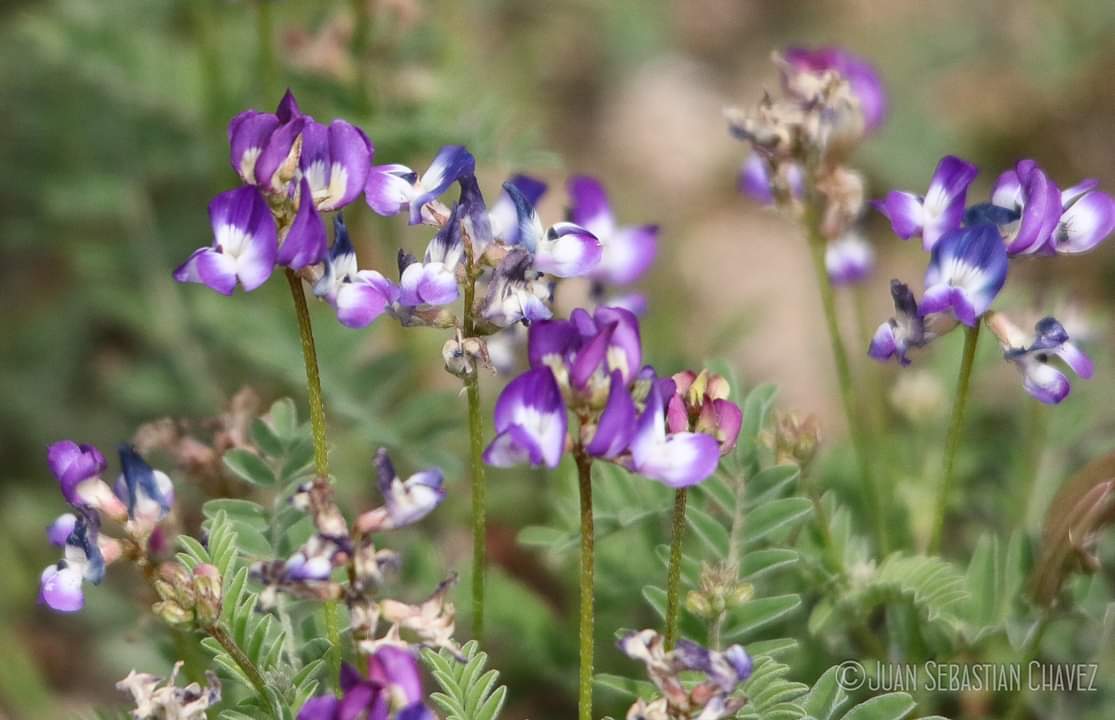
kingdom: Plantae
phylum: Tracheophyta
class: Magnoliopsida
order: Fabales
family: Fabaceae
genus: Astragalus
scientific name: Astragalus nuttallianus
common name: Smallflowered milkvetch
